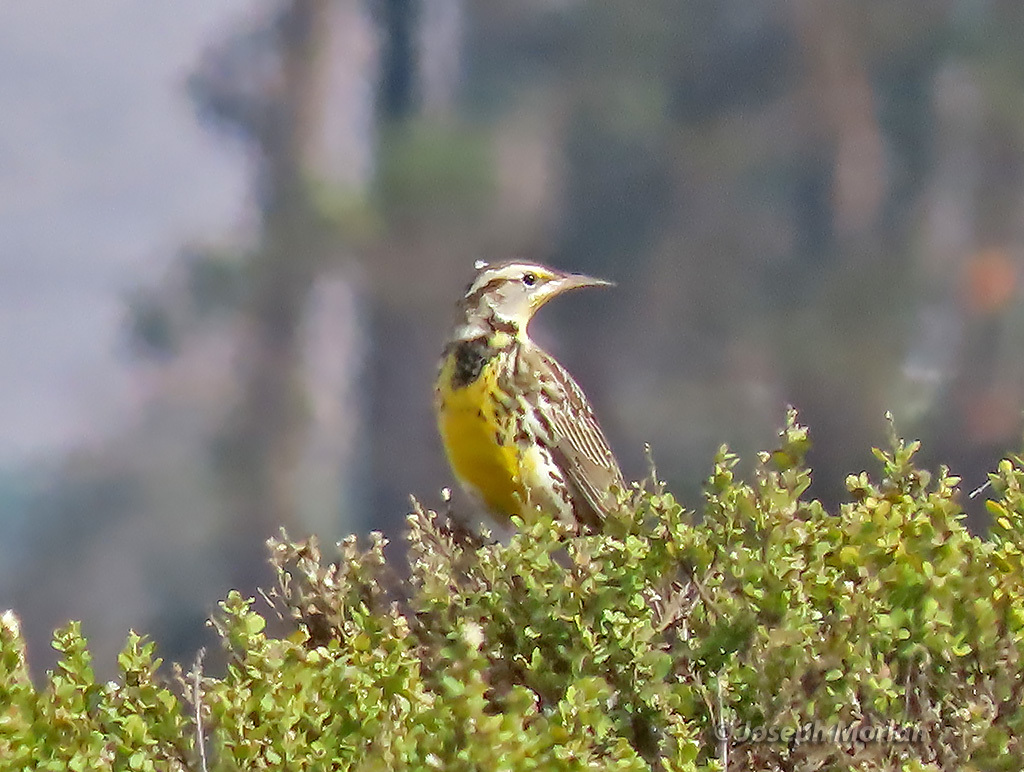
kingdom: Animalia
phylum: Chordata
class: Aves
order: Passeriformes
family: Icteridae
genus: Sturnella
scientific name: Sturnella neglecta
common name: Western meadowlark
